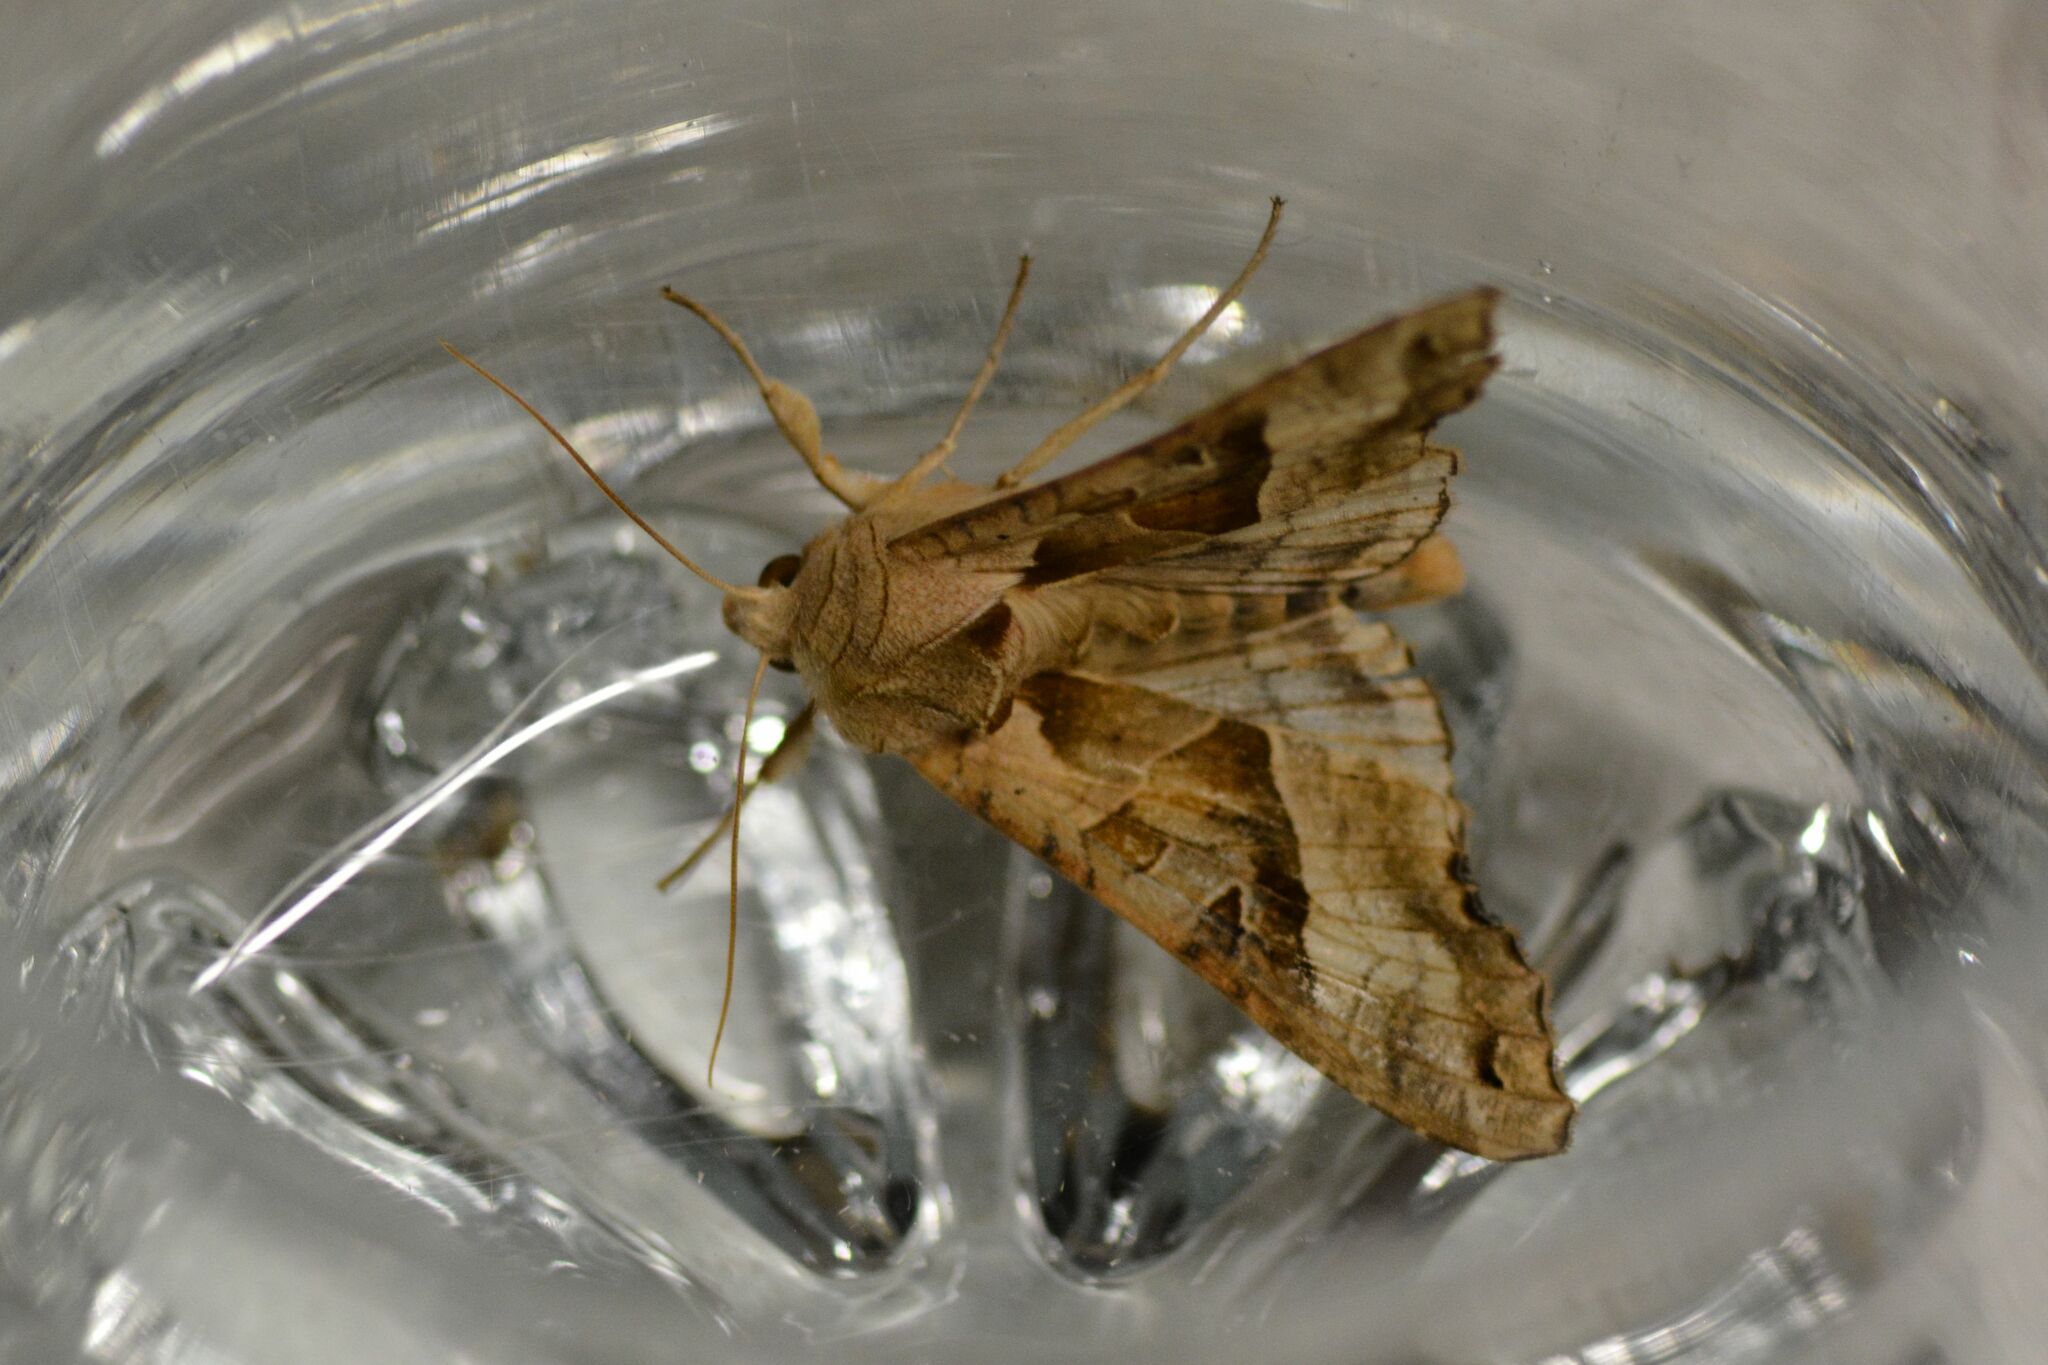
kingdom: Animalia
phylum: Arthropoda
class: Insecta
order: Lepidoptera
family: Noctuidae
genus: Phlogophora
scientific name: Phlogophora meticulosa
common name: Angle shades
